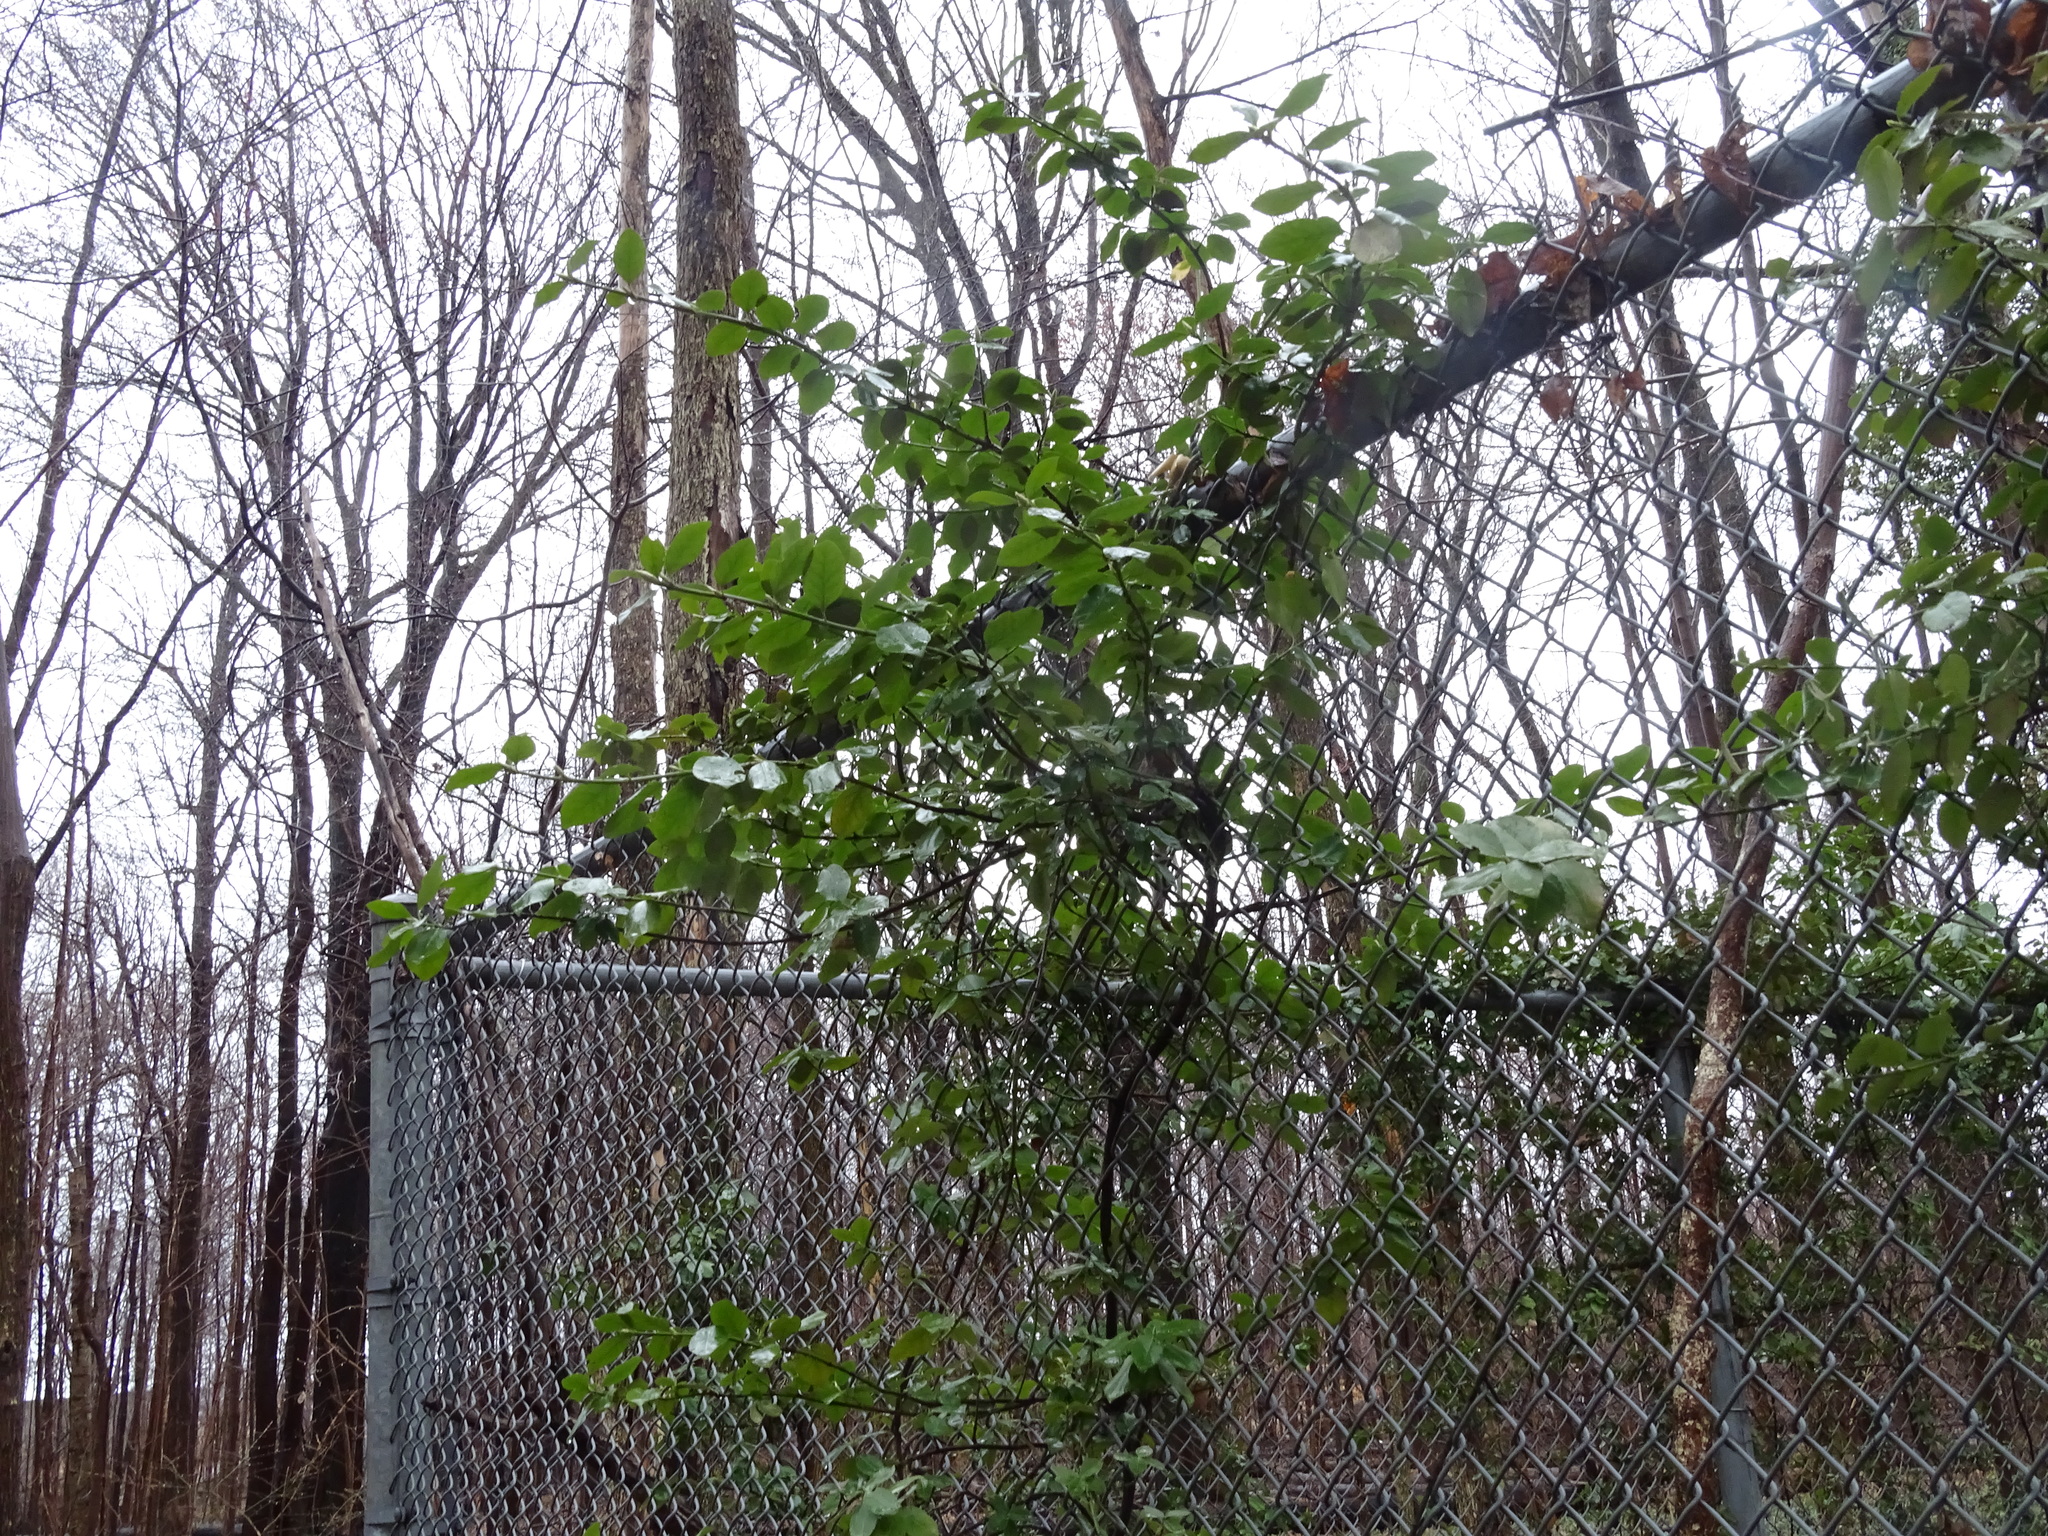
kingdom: Plantae
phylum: Tracheophyta
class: Magnoliopsida
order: Celastrales
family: Celastraceae
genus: Euonymus
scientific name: Euonymus fortunei
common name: Climbing euonymus
